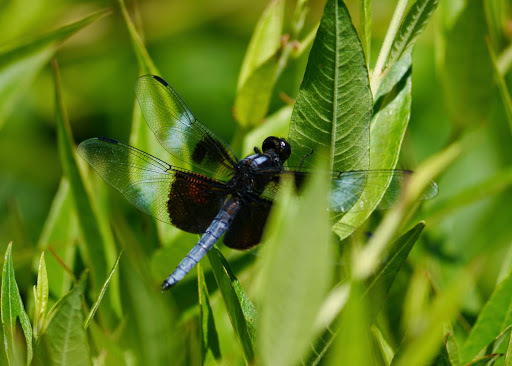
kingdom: Animalia
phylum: Arthropoda
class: Insecta
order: Odonata
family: Libellulidae
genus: Libellula
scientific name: Libellula luctuosa
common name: Widow skimmer
